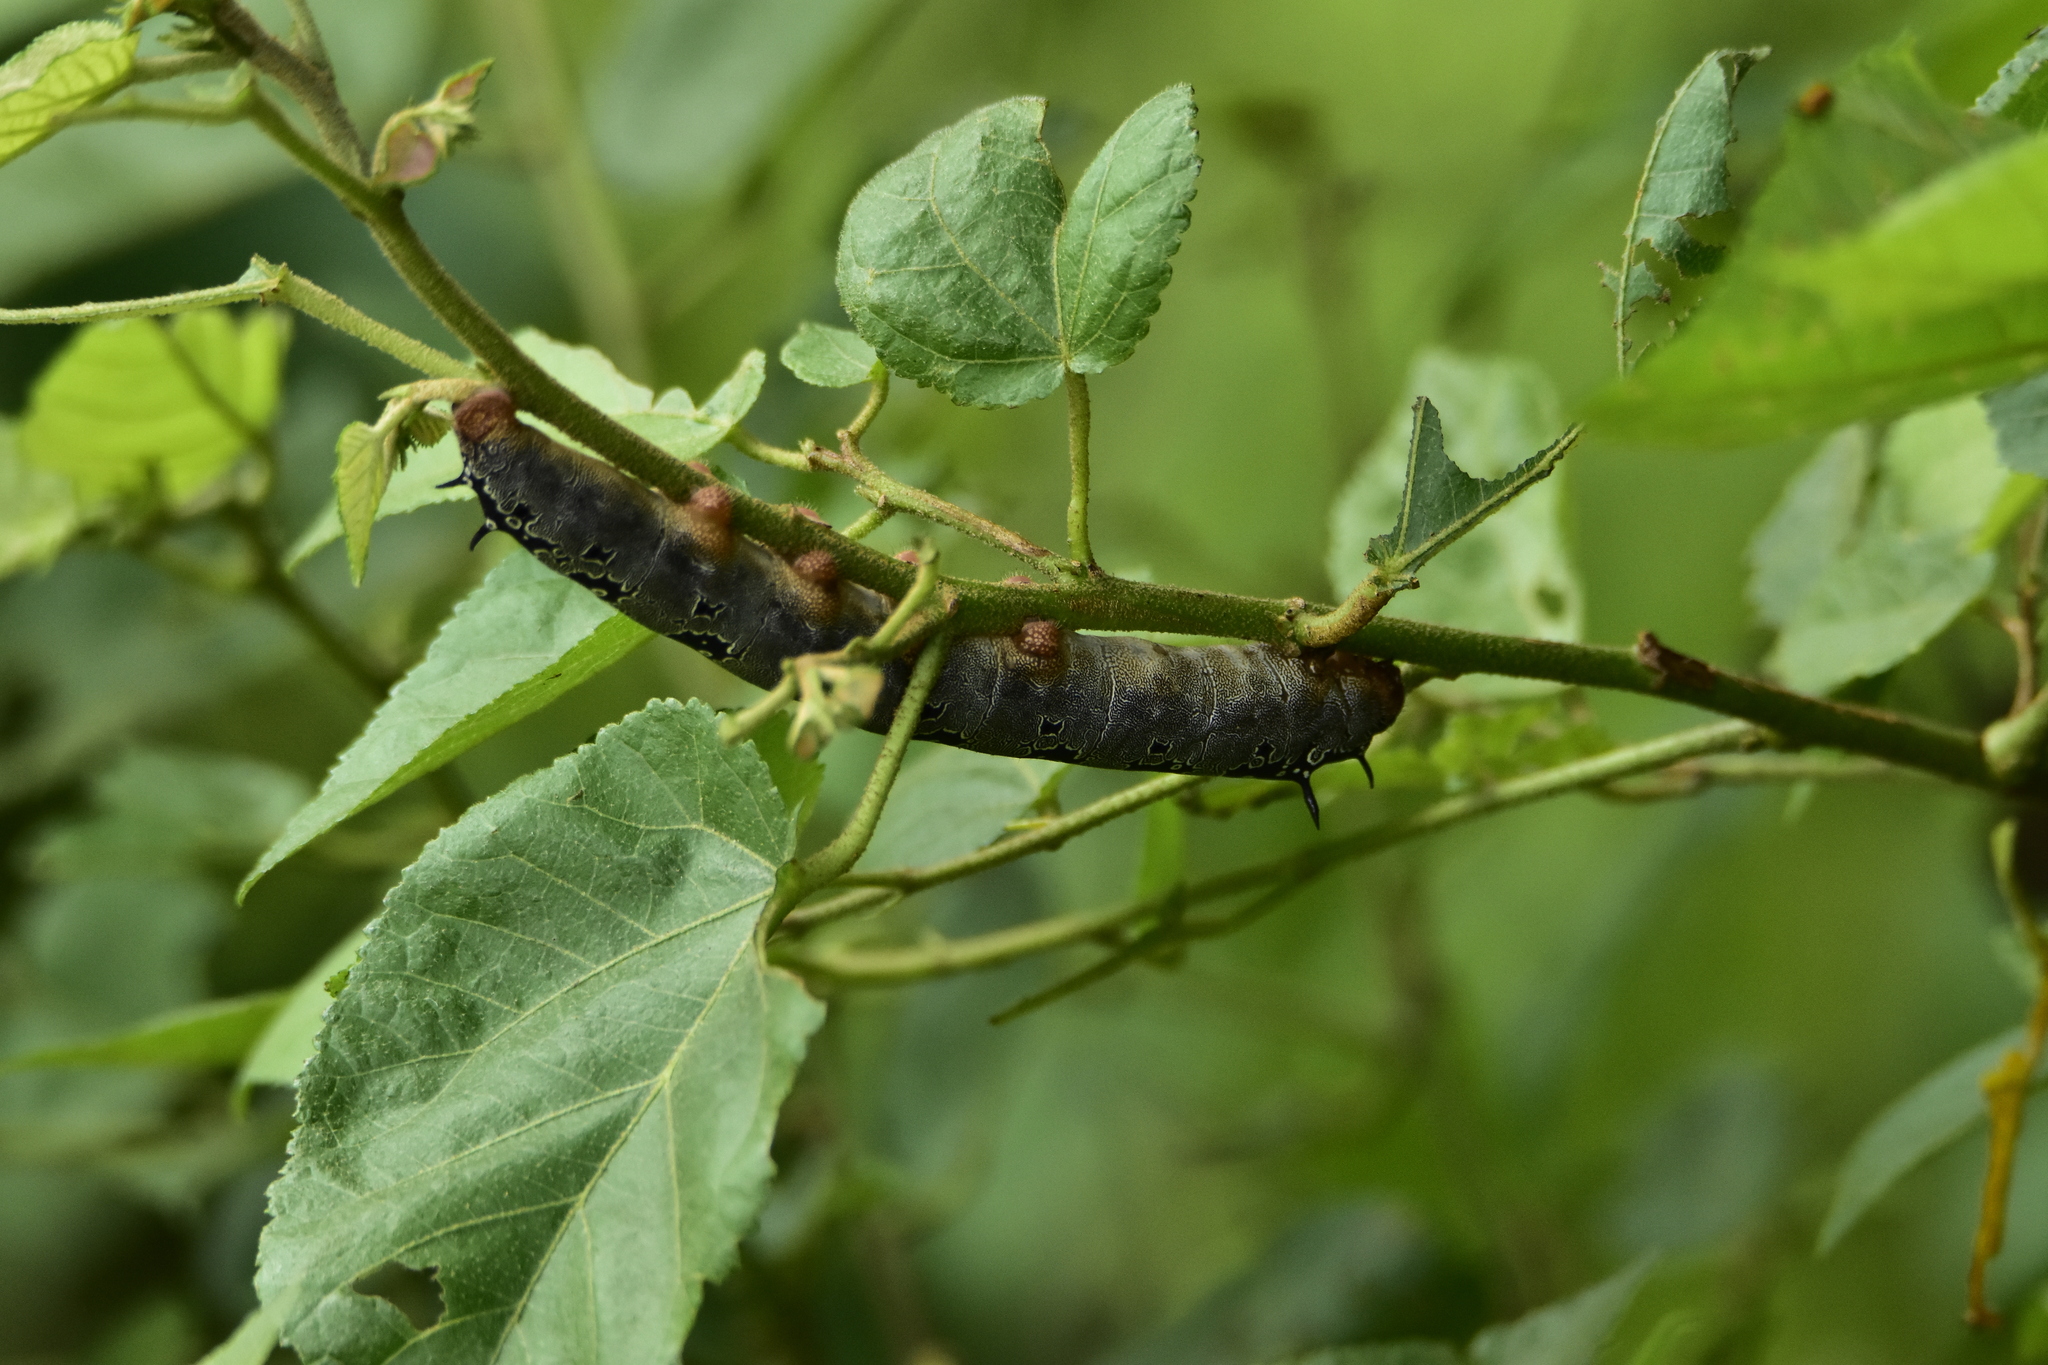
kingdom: Animalia
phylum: Arthropoda
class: Insecta
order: Lepidoptera
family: Saturniidae
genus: Arsenura
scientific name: Arsenura polyodonta
